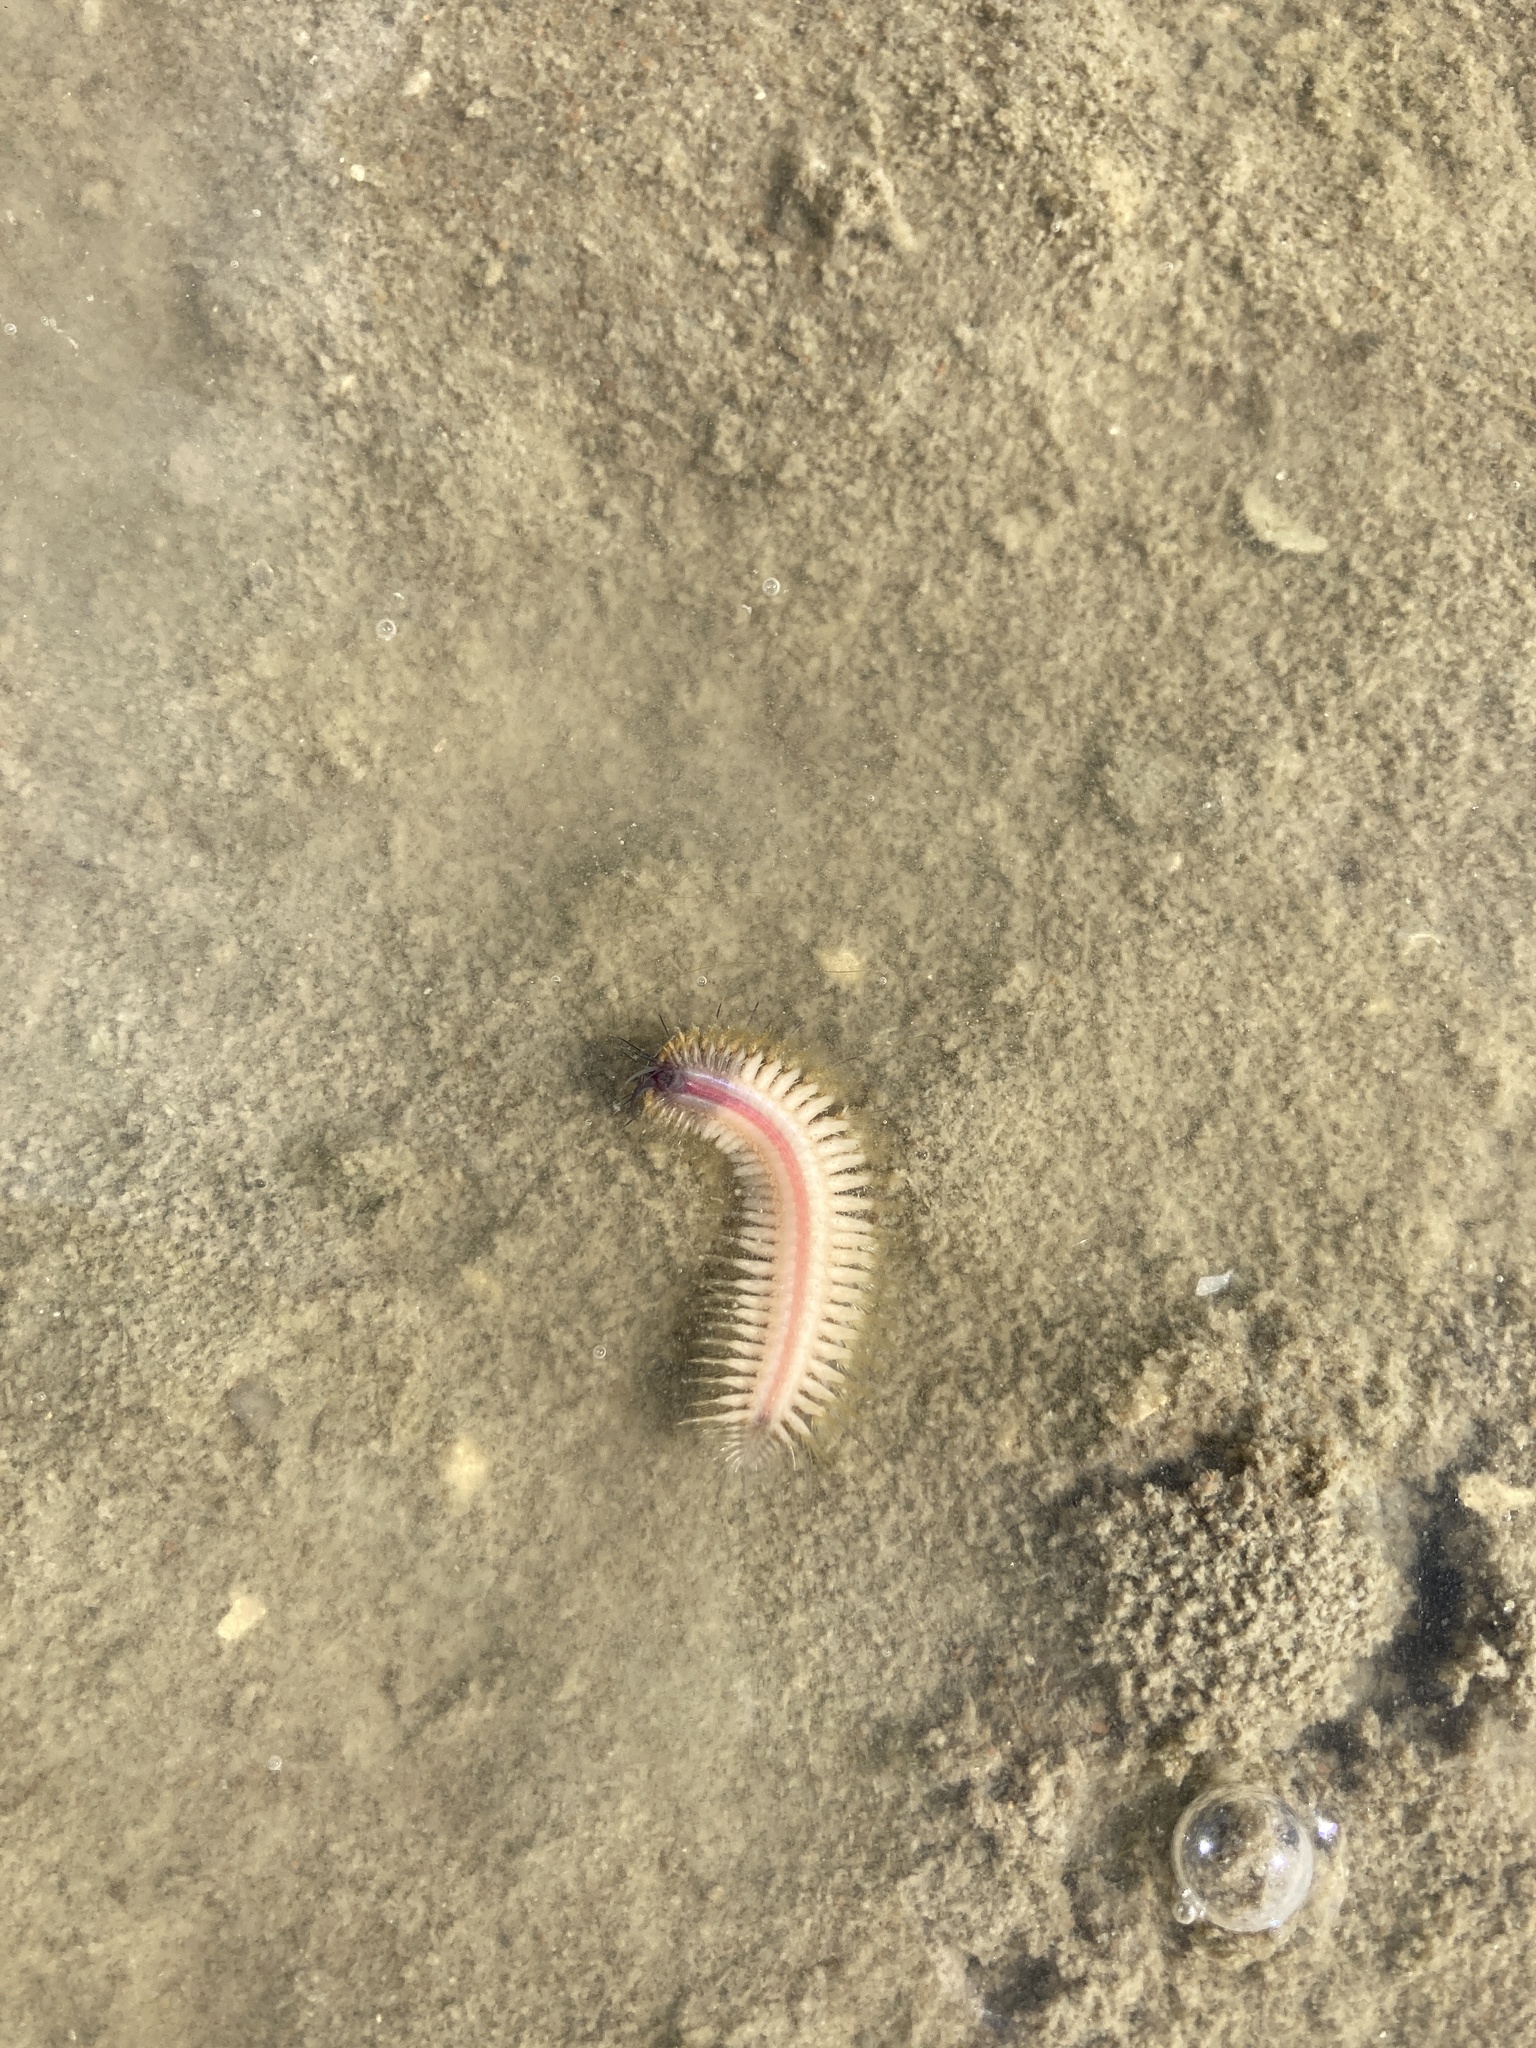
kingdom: Animalia
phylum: Annelida
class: Polychaeta
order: Phyllodocida
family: Polynoidae
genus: Paralepidonotus
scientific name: Paralepidonotus ampulliferus
